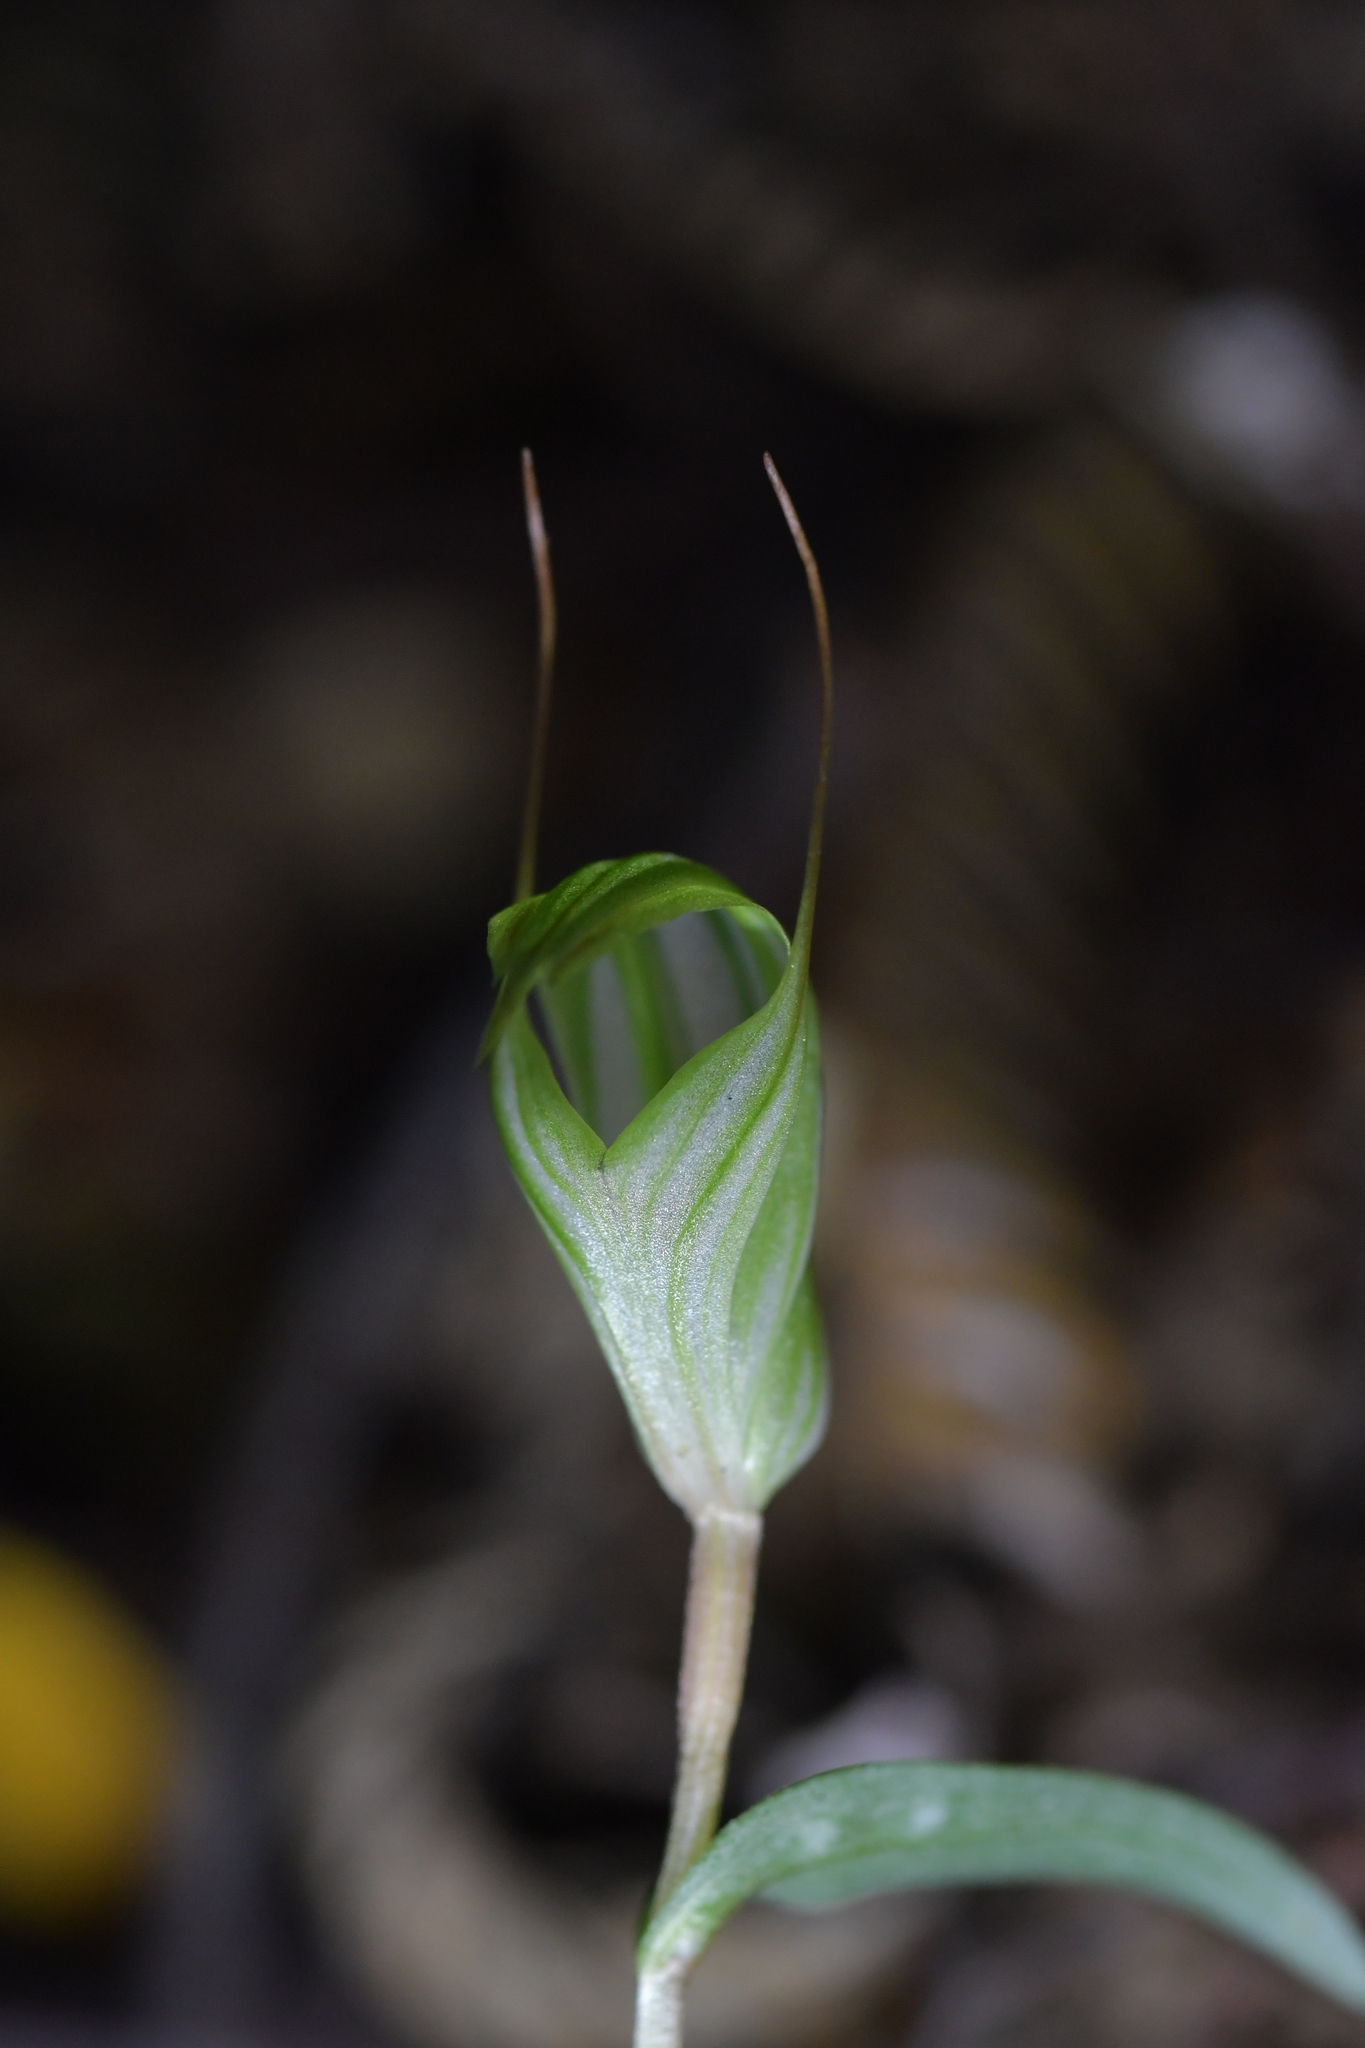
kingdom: Plantae
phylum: Tracheophyta
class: Liliopsida
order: Asparagales
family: Orchidaceae
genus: Pterostylis
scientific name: Pterostylis alobula
